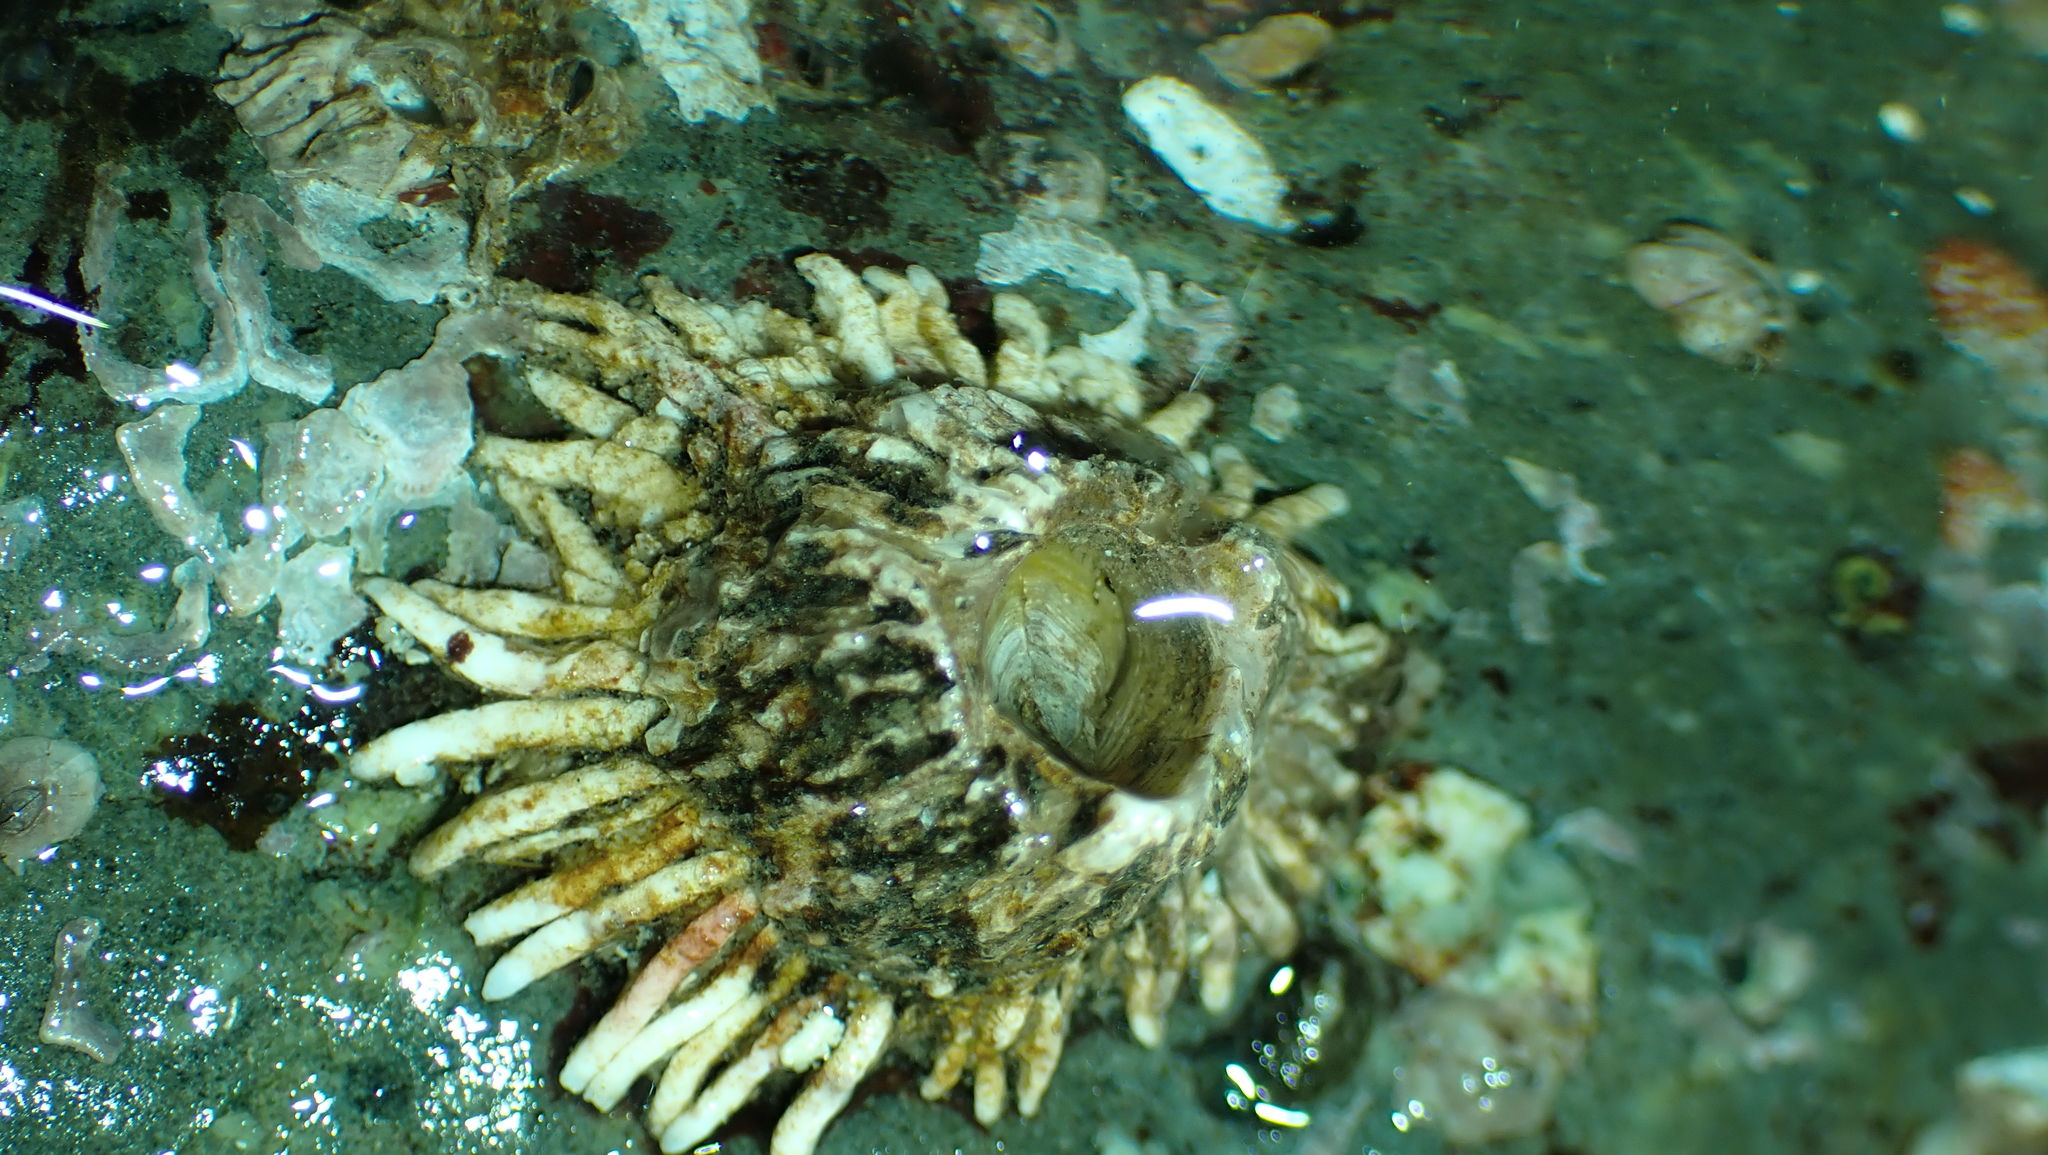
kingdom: Animalia
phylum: Arthropoda
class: Maxillopoda
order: Sessilia
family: Archaeobalanidae
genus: Semibalanus
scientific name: Semibalanus cariosus
